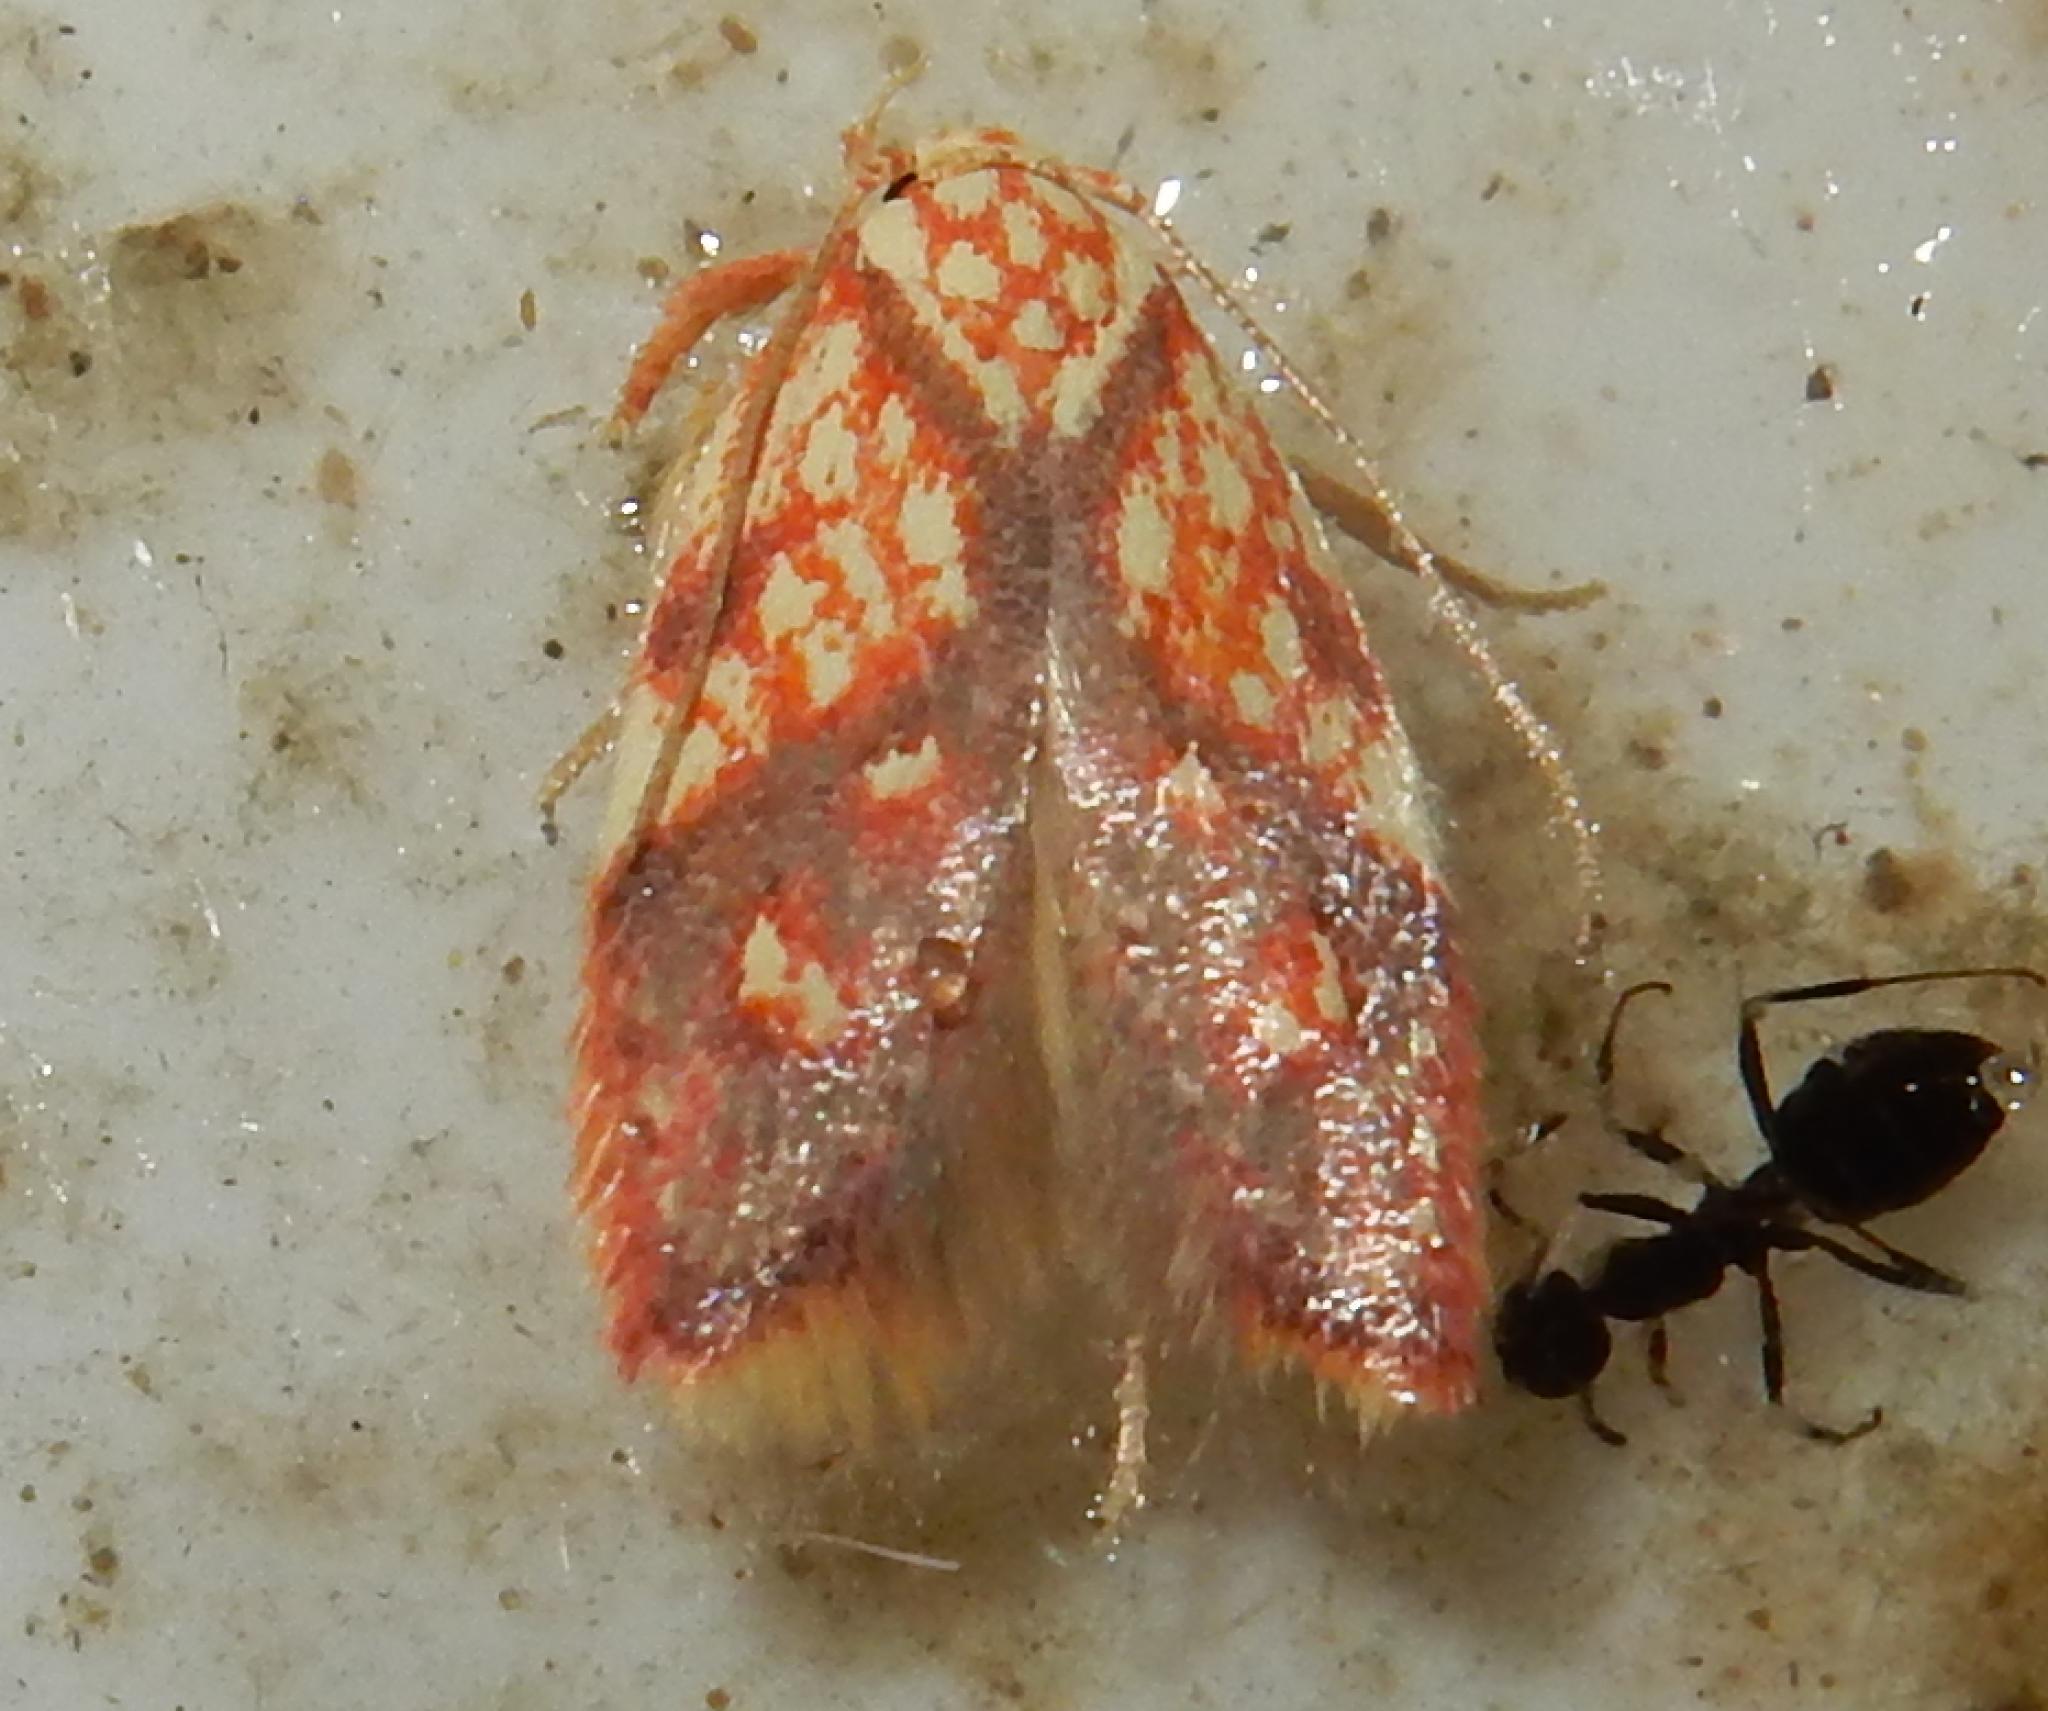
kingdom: Animalia
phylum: Arthropoda
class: Insecta
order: Lepidoptera
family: Oecophoridae
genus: Isocrita
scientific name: Isocrita protophanes
